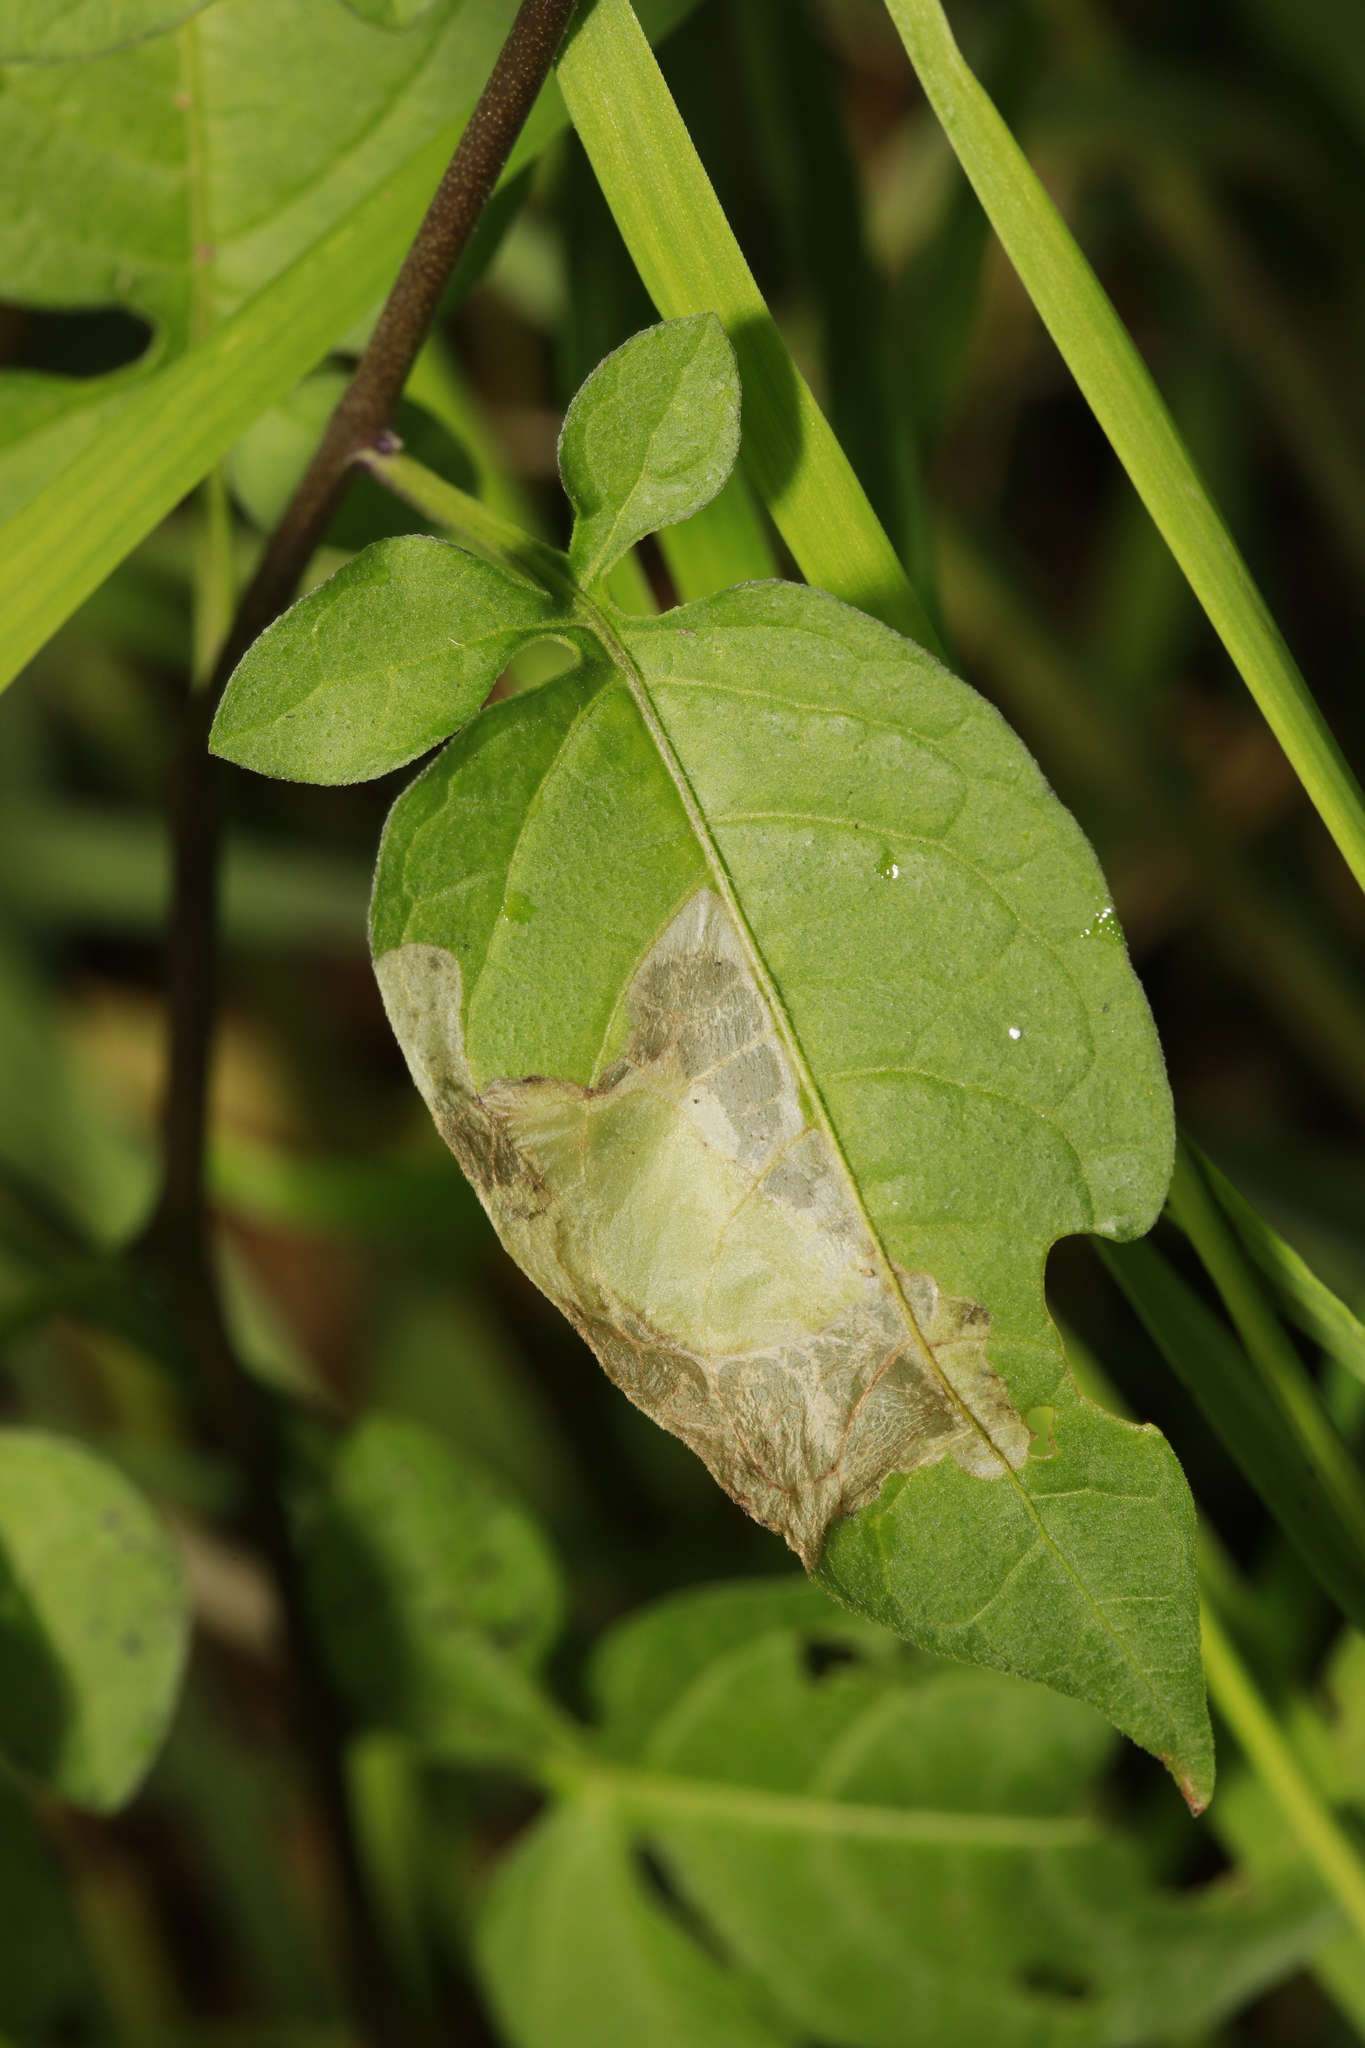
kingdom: Animalia
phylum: Arthropoda
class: Insecta
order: Lepidoptera
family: Glyphipterigidae
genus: Acrolepia
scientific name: Acrolepia pygmaeana
